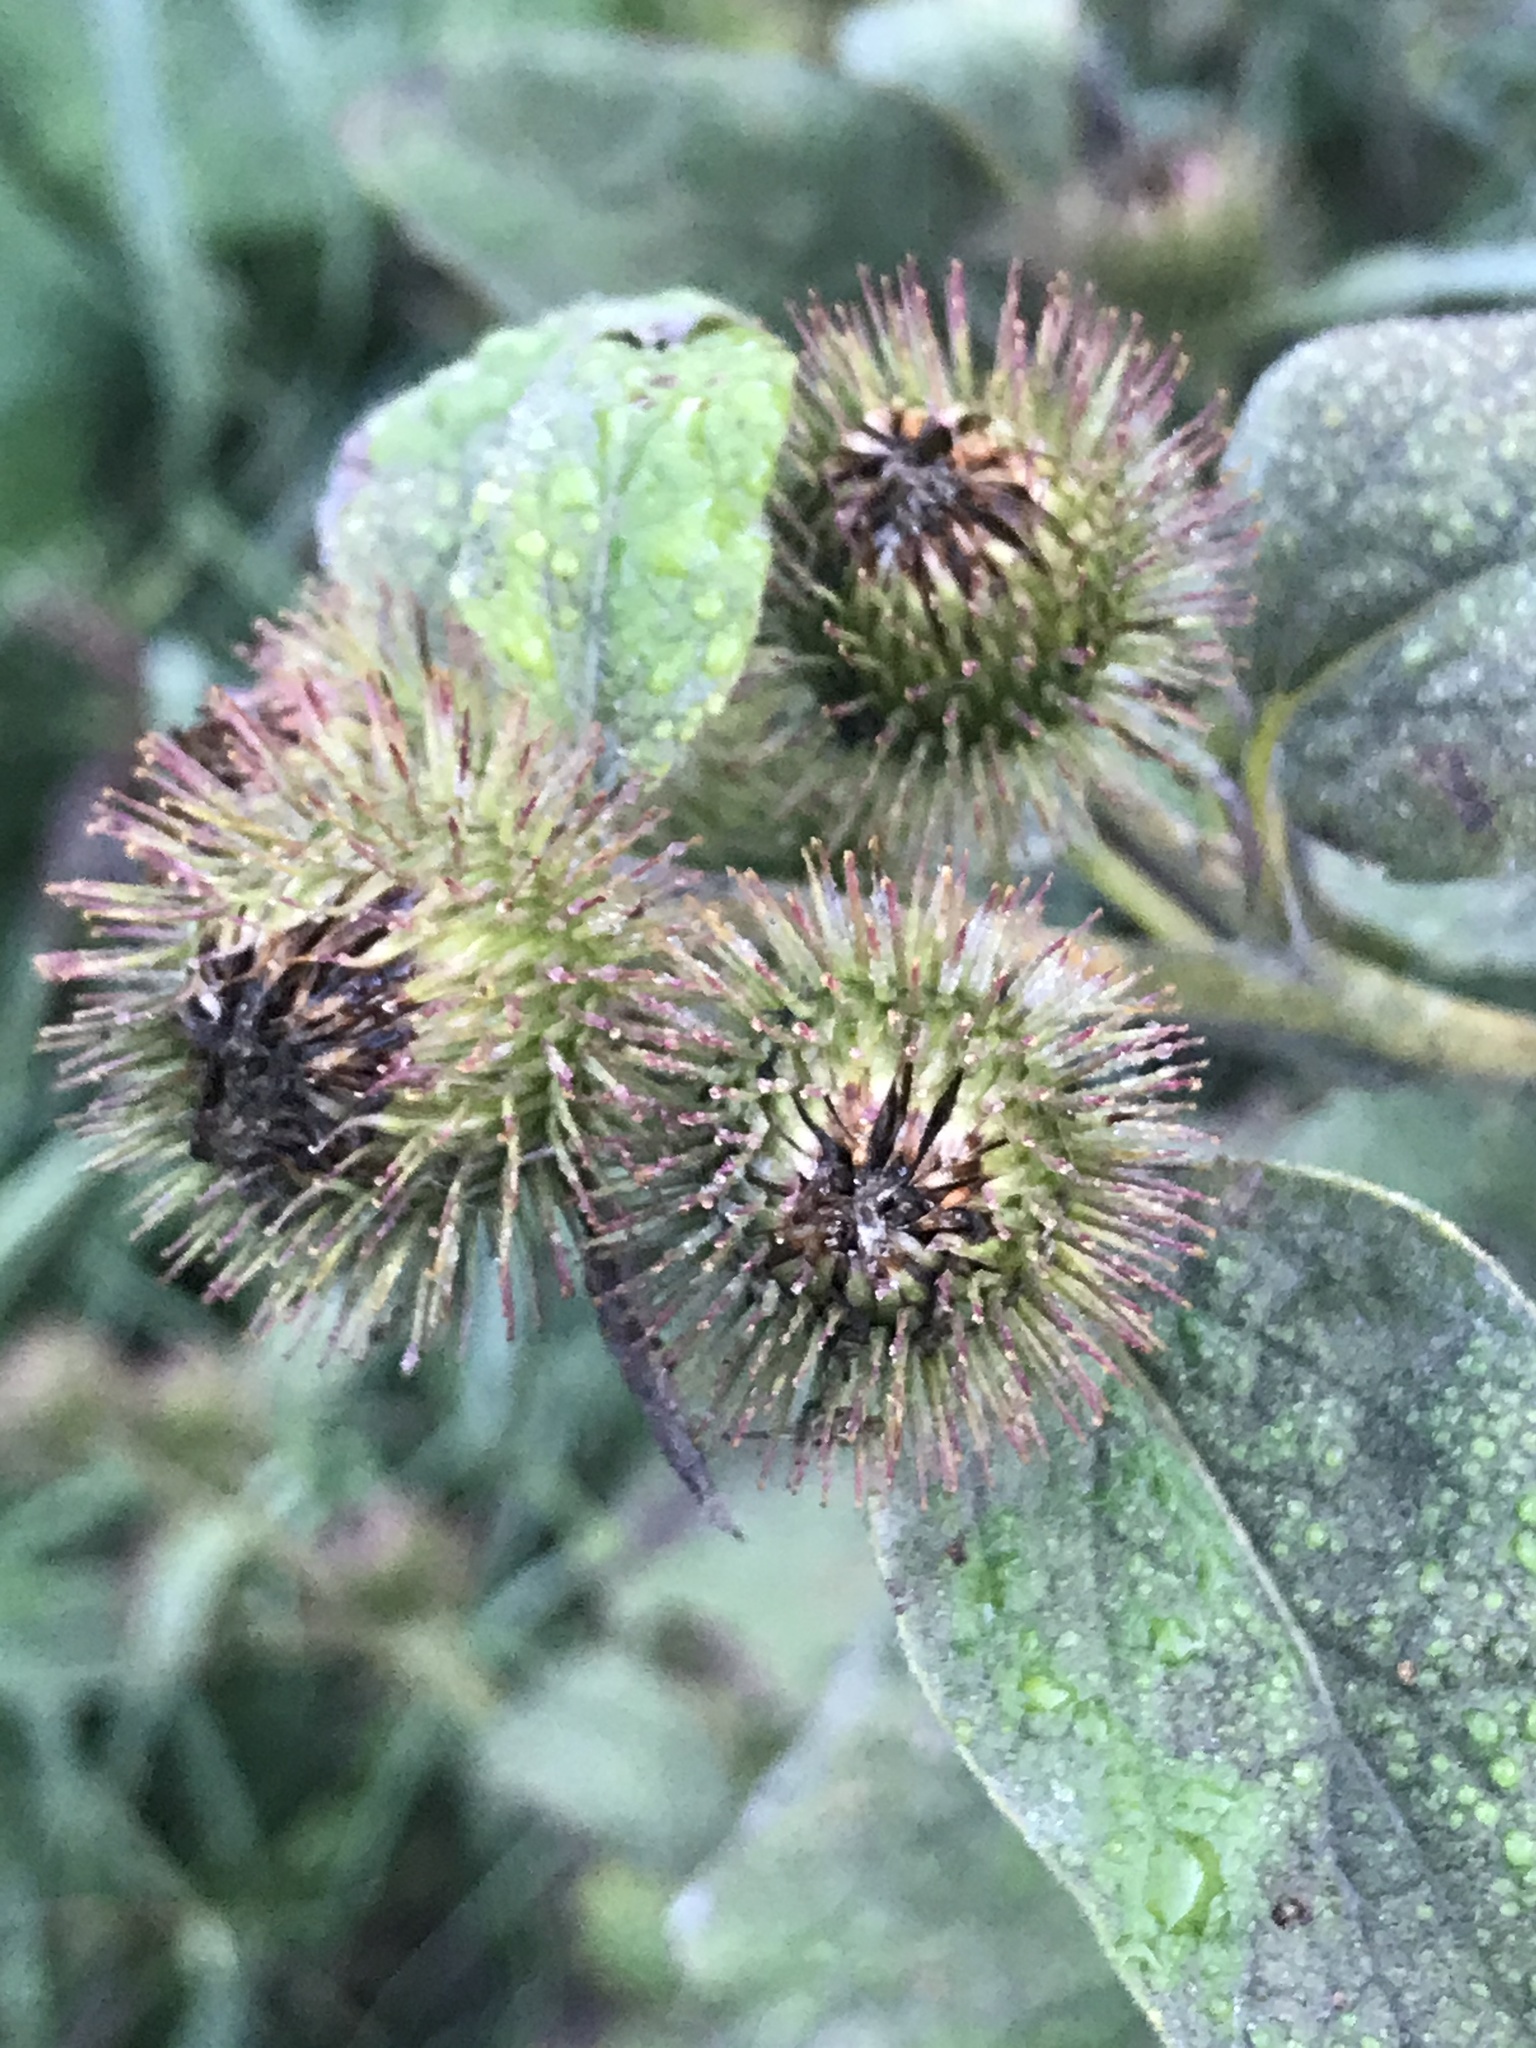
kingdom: Plantae
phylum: Tracheophyta
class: Magnoliopsida
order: Asterales
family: Asteraceae
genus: Arctium
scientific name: Arctium minus
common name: Lesser burdock
